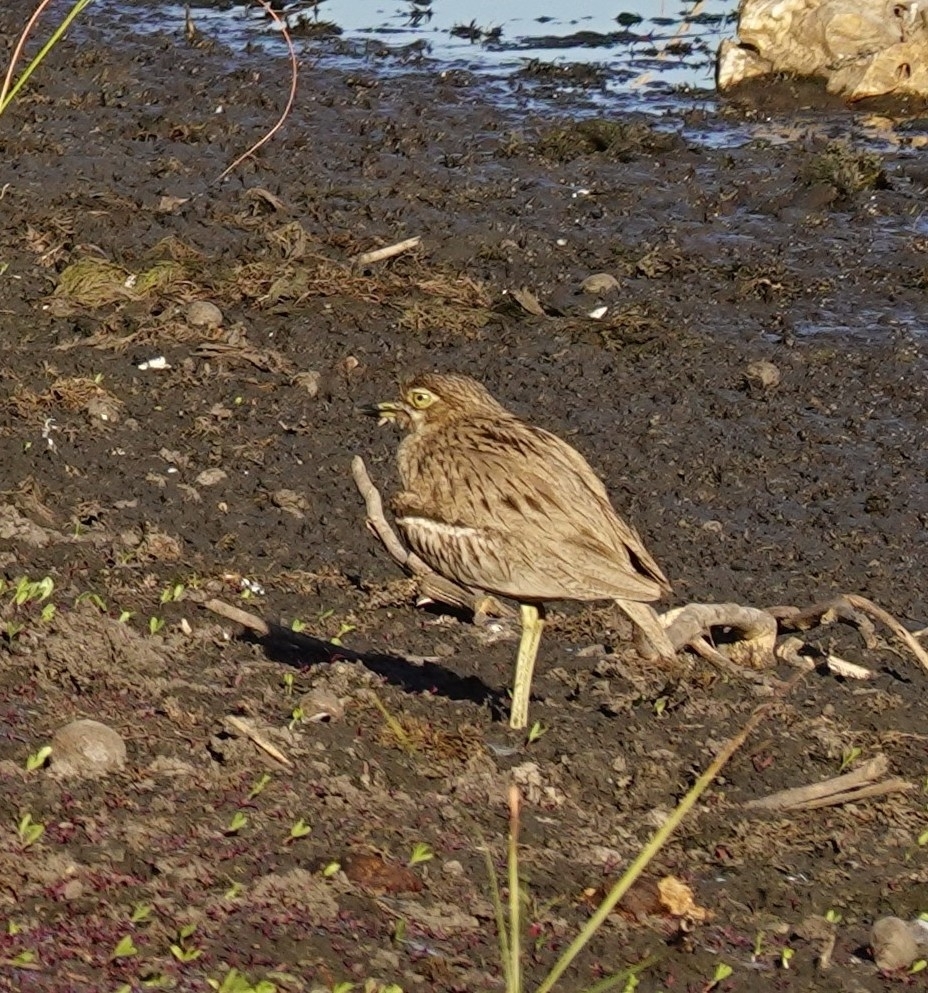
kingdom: Animalia
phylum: Chordata
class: Aves
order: Charadriiformes
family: Burhinidae
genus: Burhinus
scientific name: Burhinus vermiculatus
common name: Water thick-knee
